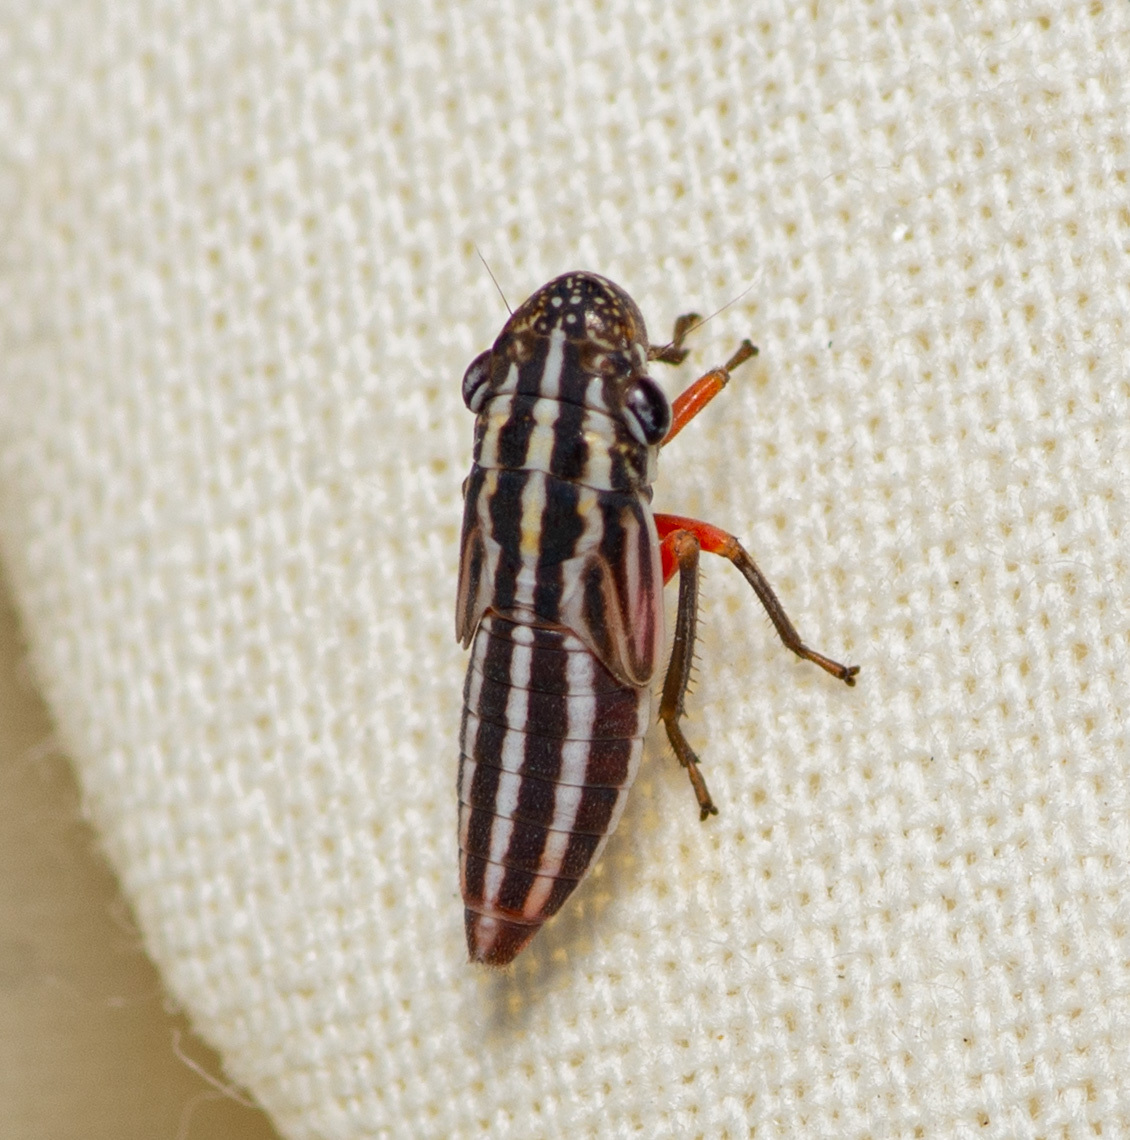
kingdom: Animalia
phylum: Arthropoda
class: Insecta
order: Hemiptera
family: Cicadellidae
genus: Cuerna
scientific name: Cuerna costalis
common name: Lateral-lined sharpshooter
